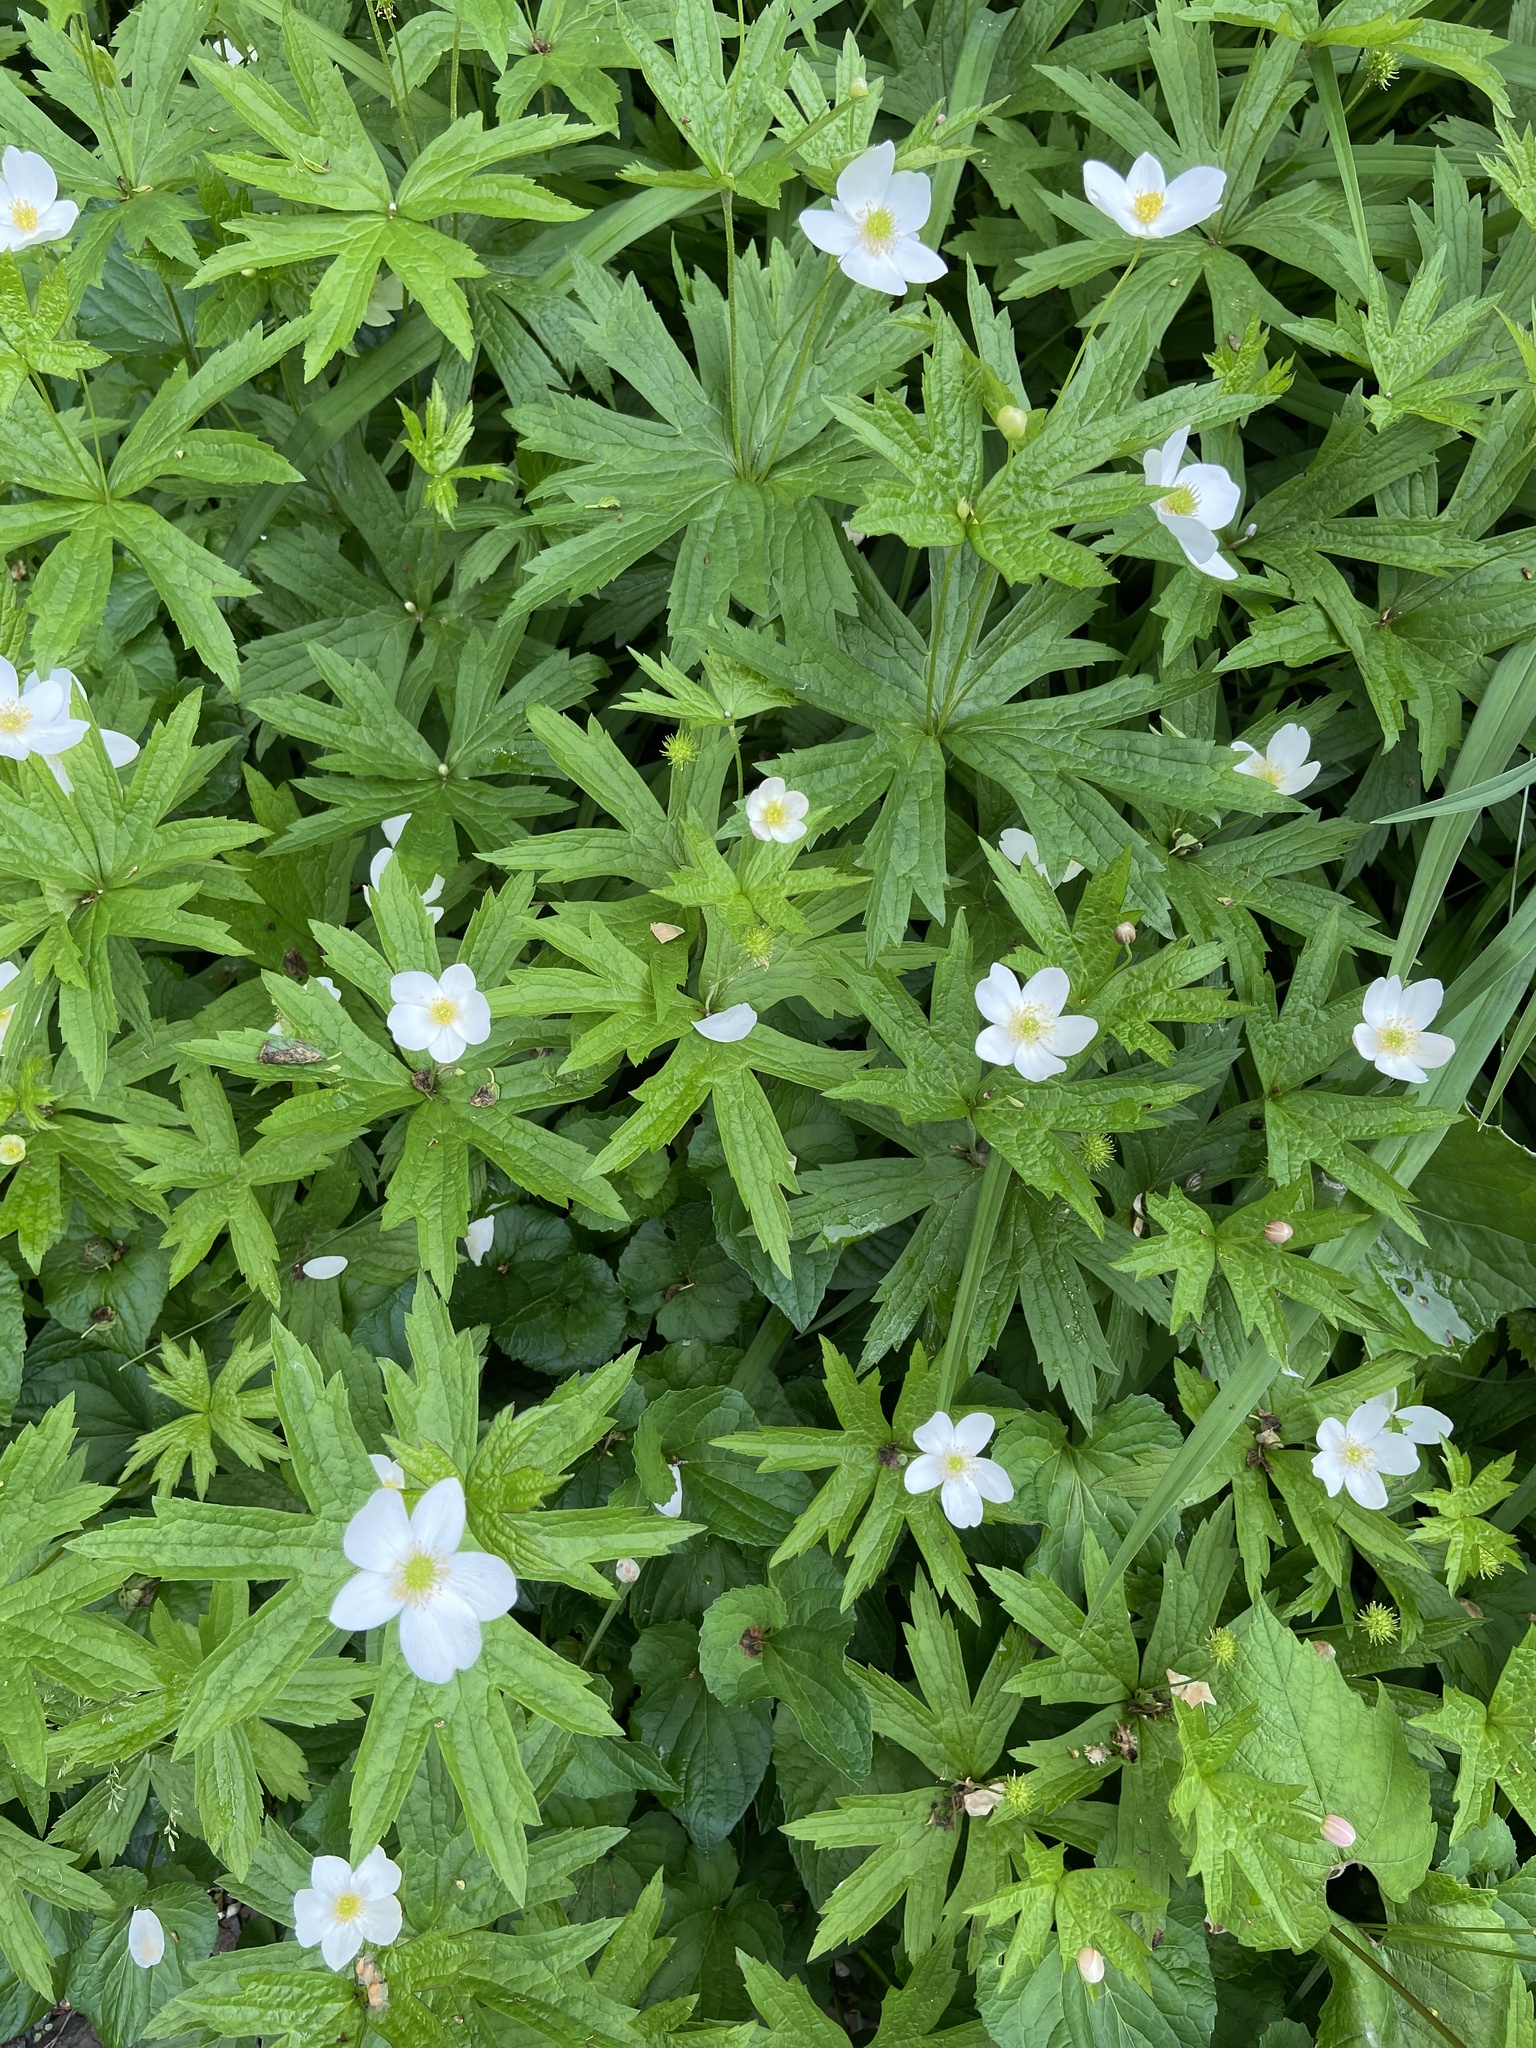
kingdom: Plantae
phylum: Tracheophyta
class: Magnoliopsida
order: Ranunculales
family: Ranunculaceae
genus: Anemonastrum
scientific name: Anemonastrum canadense
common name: Canada anemone
